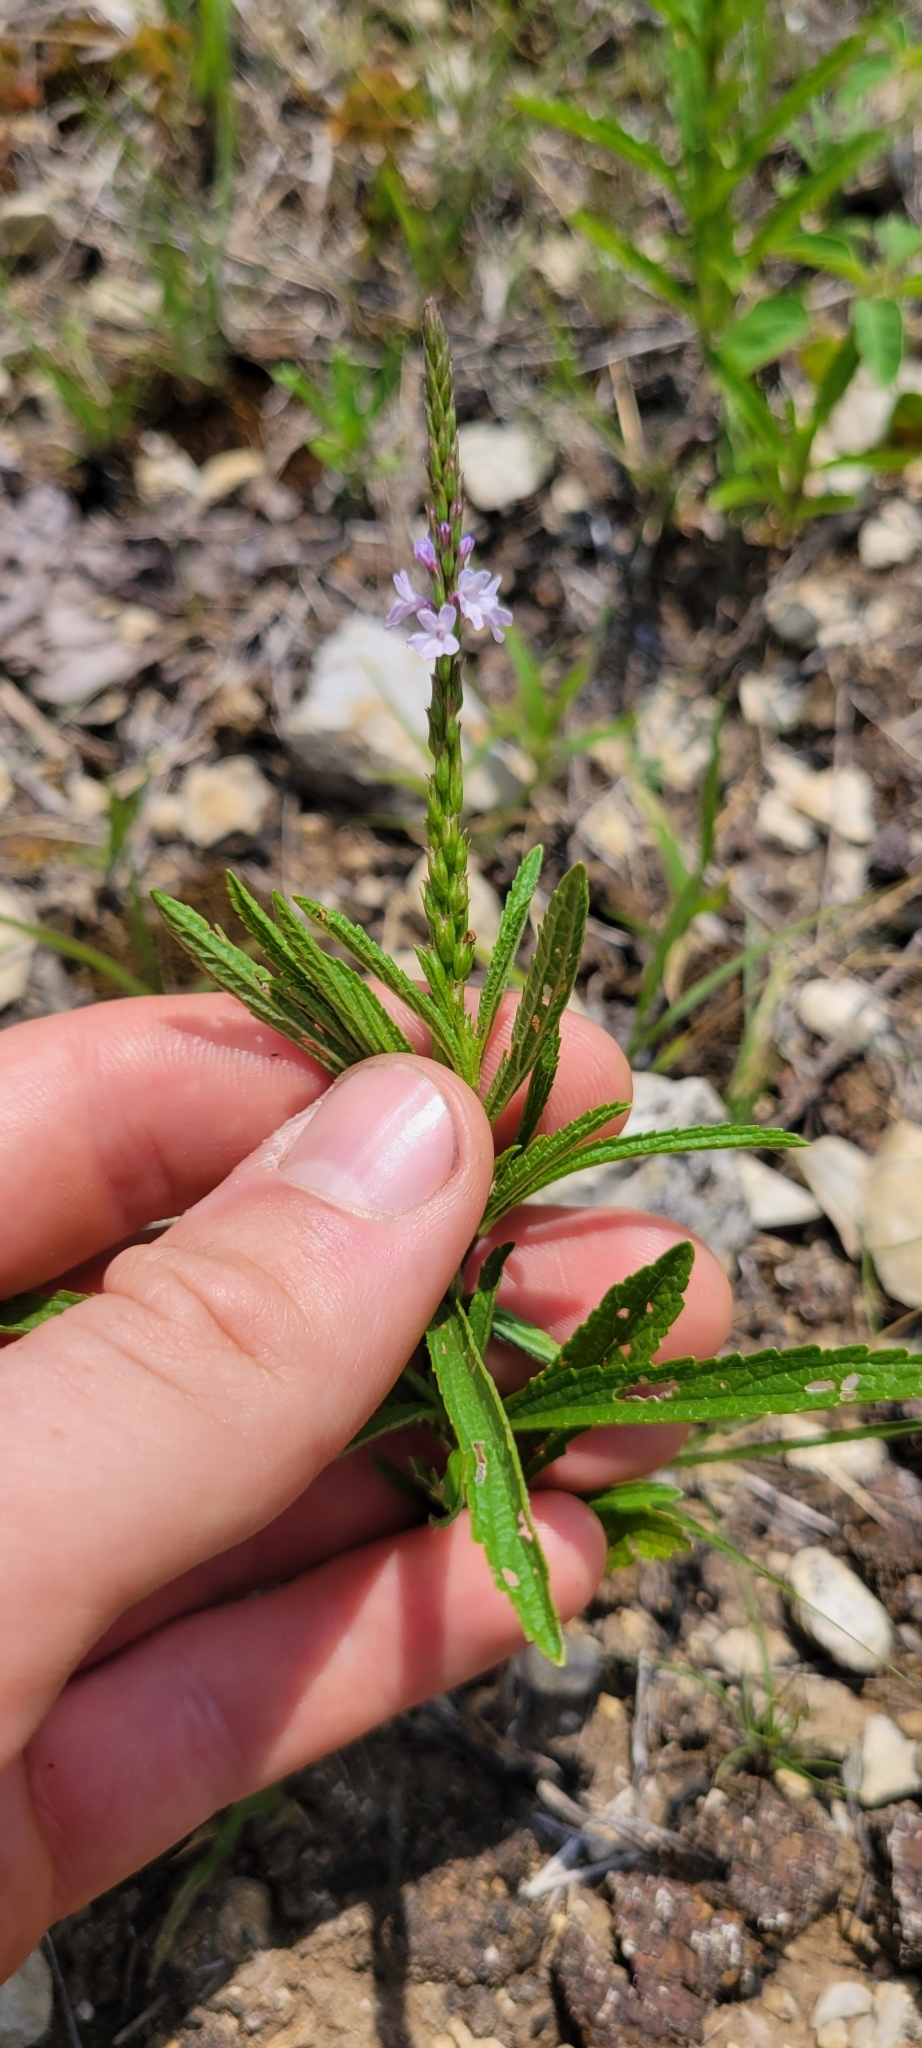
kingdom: Plantae
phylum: Tracheophyta
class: Magnoliopsida
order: Lamiales
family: Verbenaceae
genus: Verbena
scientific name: Verbena simplex
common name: Narrow-leaf vervain
